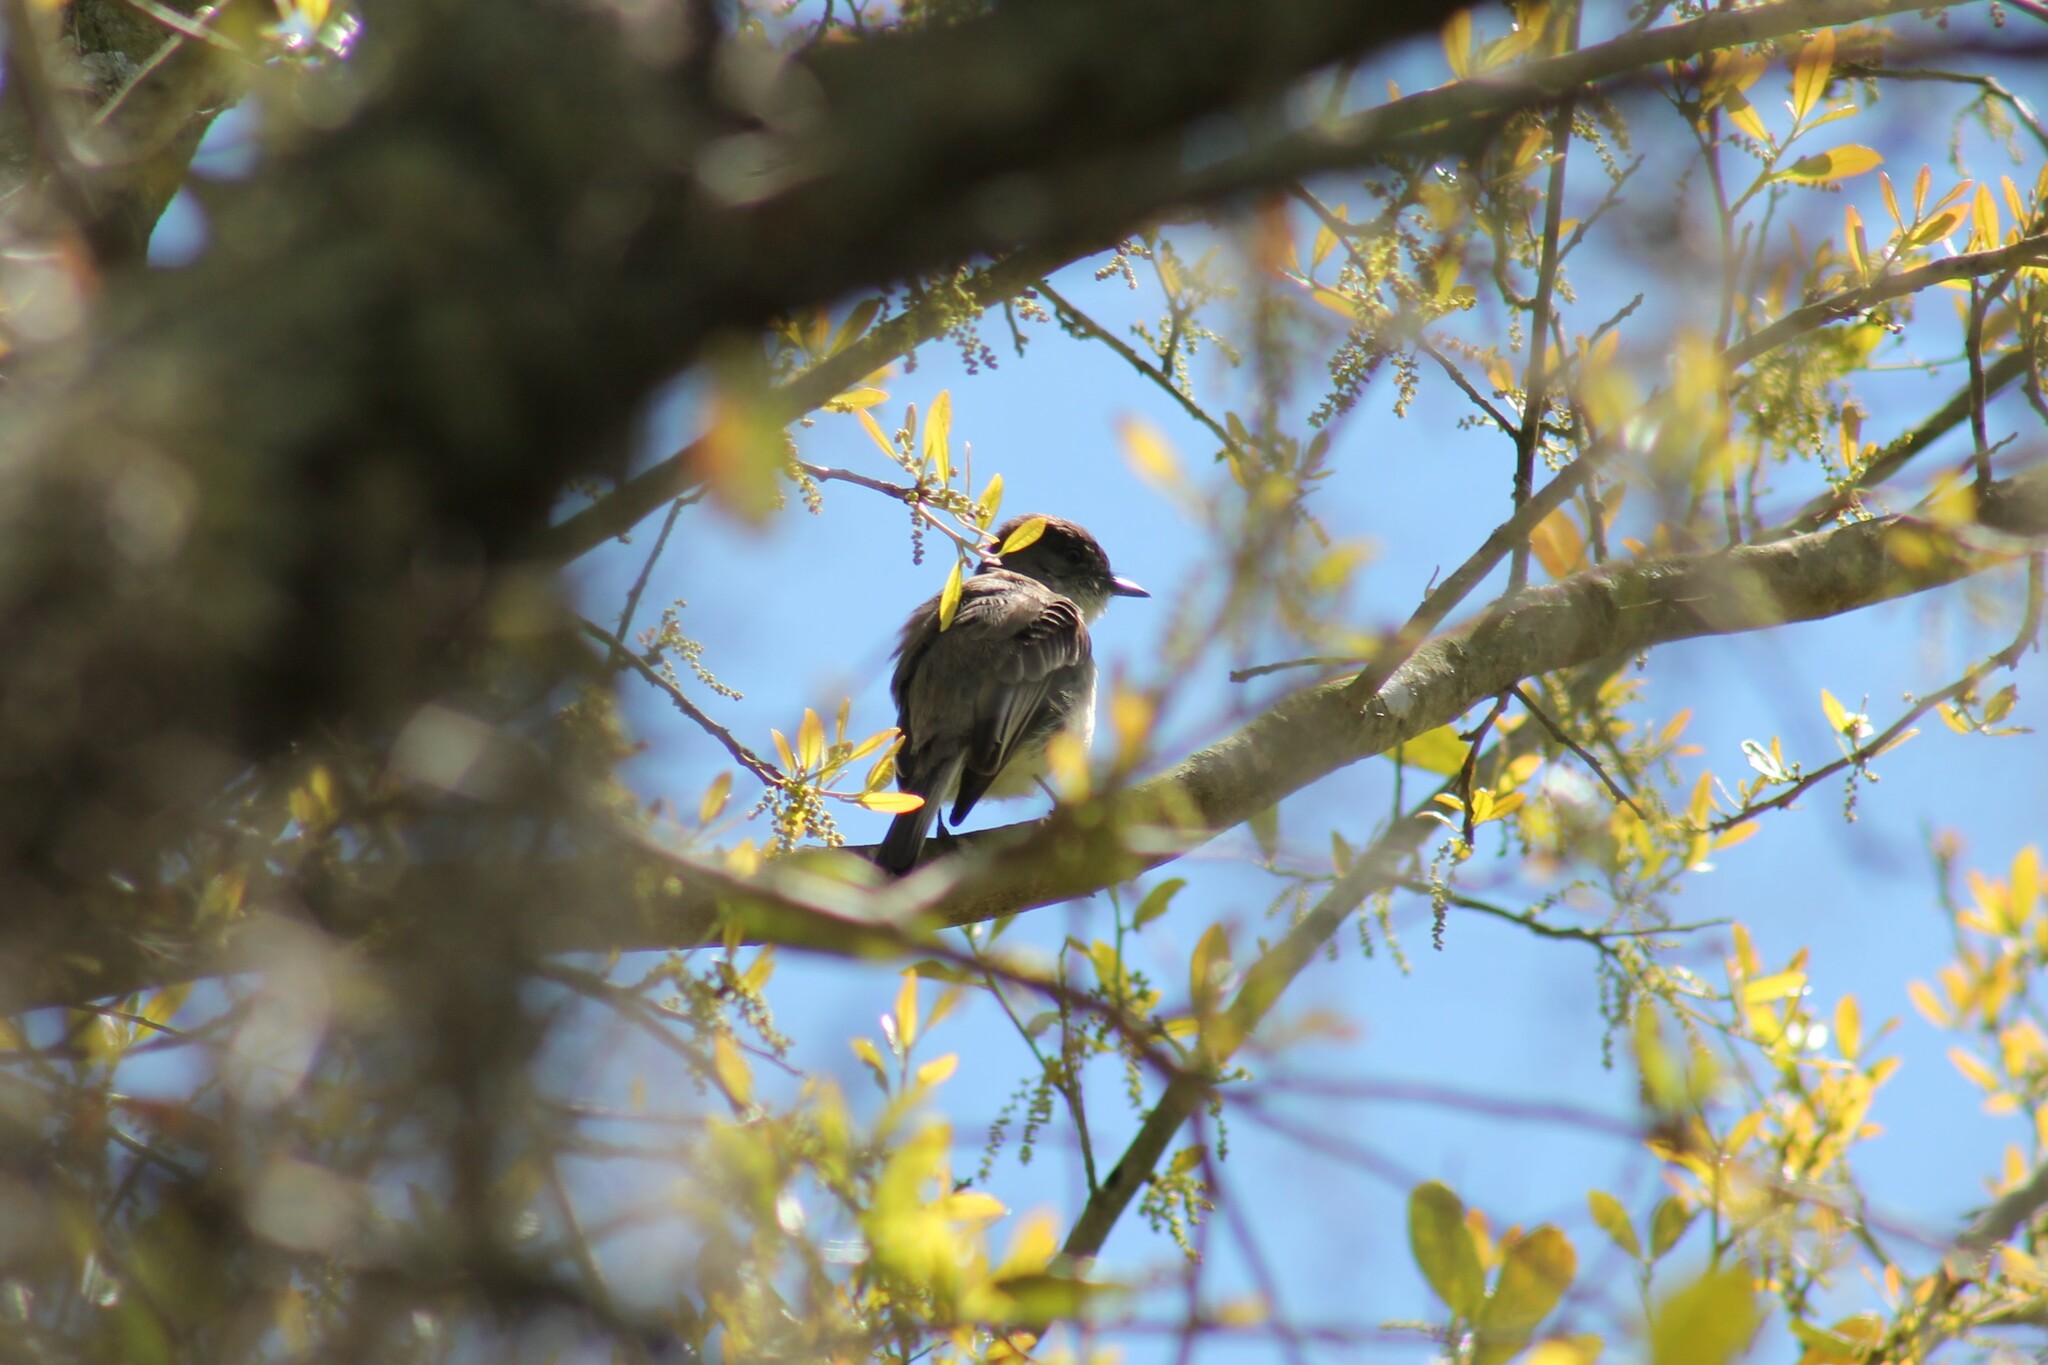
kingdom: Animalia
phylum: Chordata
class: Aves
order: Passeriformes
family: Tyrannidae
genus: Sayornis
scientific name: Sayornis phoebe
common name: Eastern phoebe
